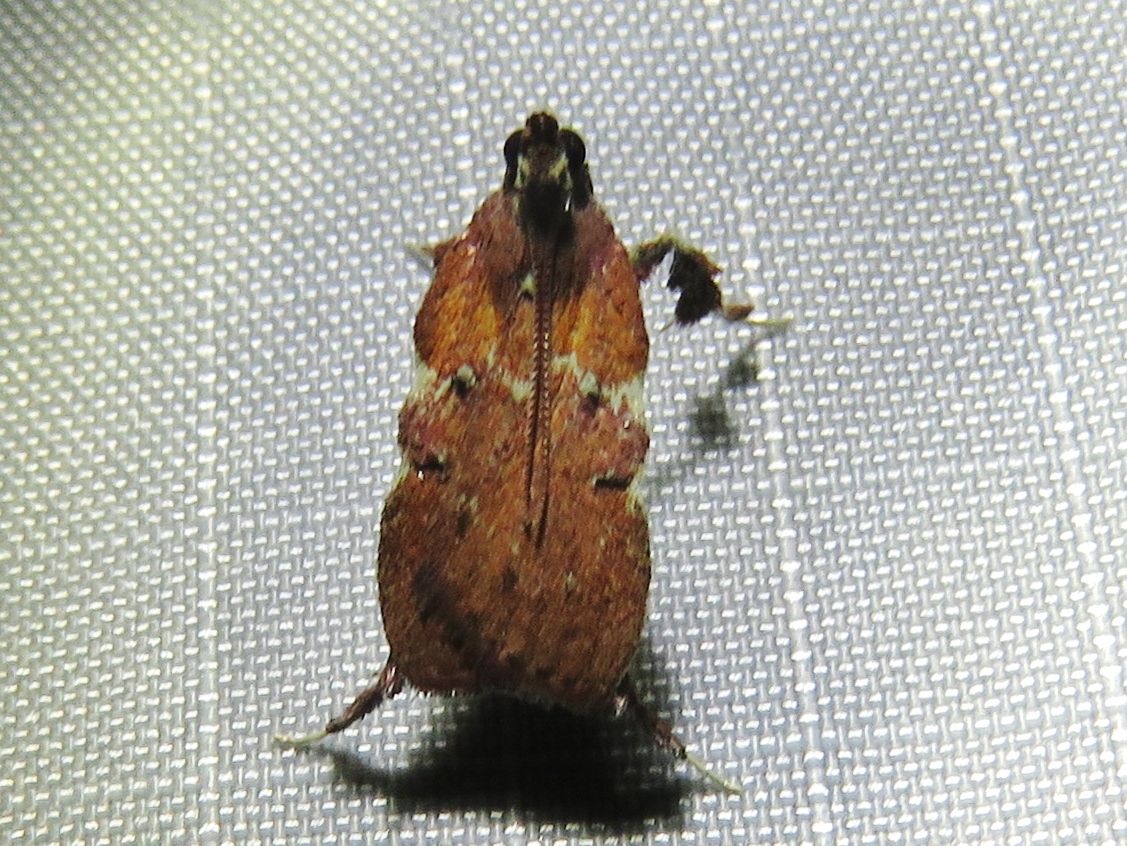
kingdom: Animalia
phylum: Arthropoda
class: Insecta
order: Lepidoptera
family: Pyralidae
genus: Galasa
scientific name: Galasa nigrinodis
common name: Boxwood leaftier moth
